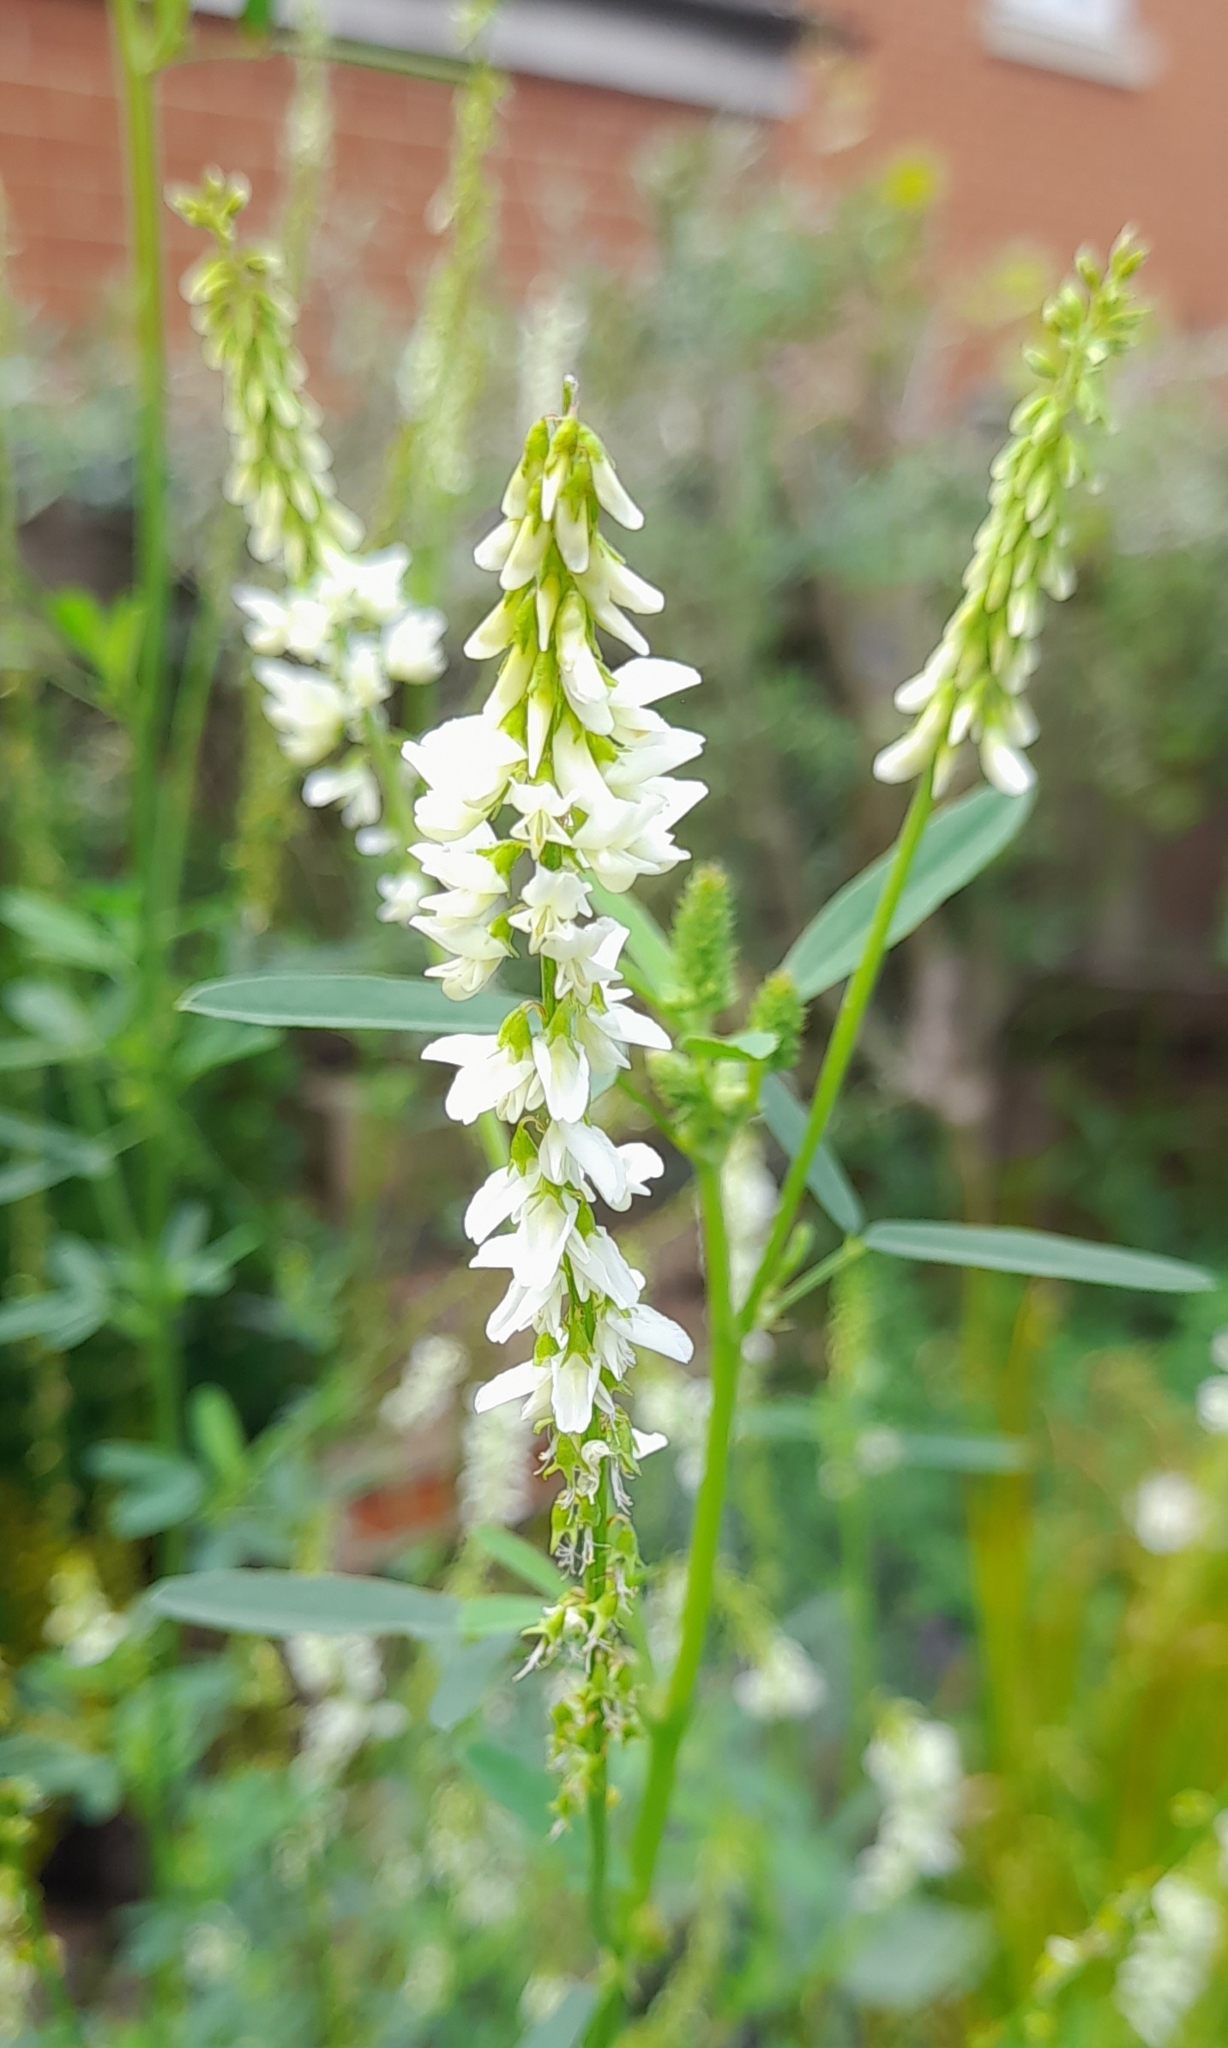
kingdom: Plantae
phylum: Tracheophyta
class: Magnoliopsida
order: Fabales
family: Fabaceae
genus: Melilotus
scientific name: Melilotus albus
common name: White melilot
